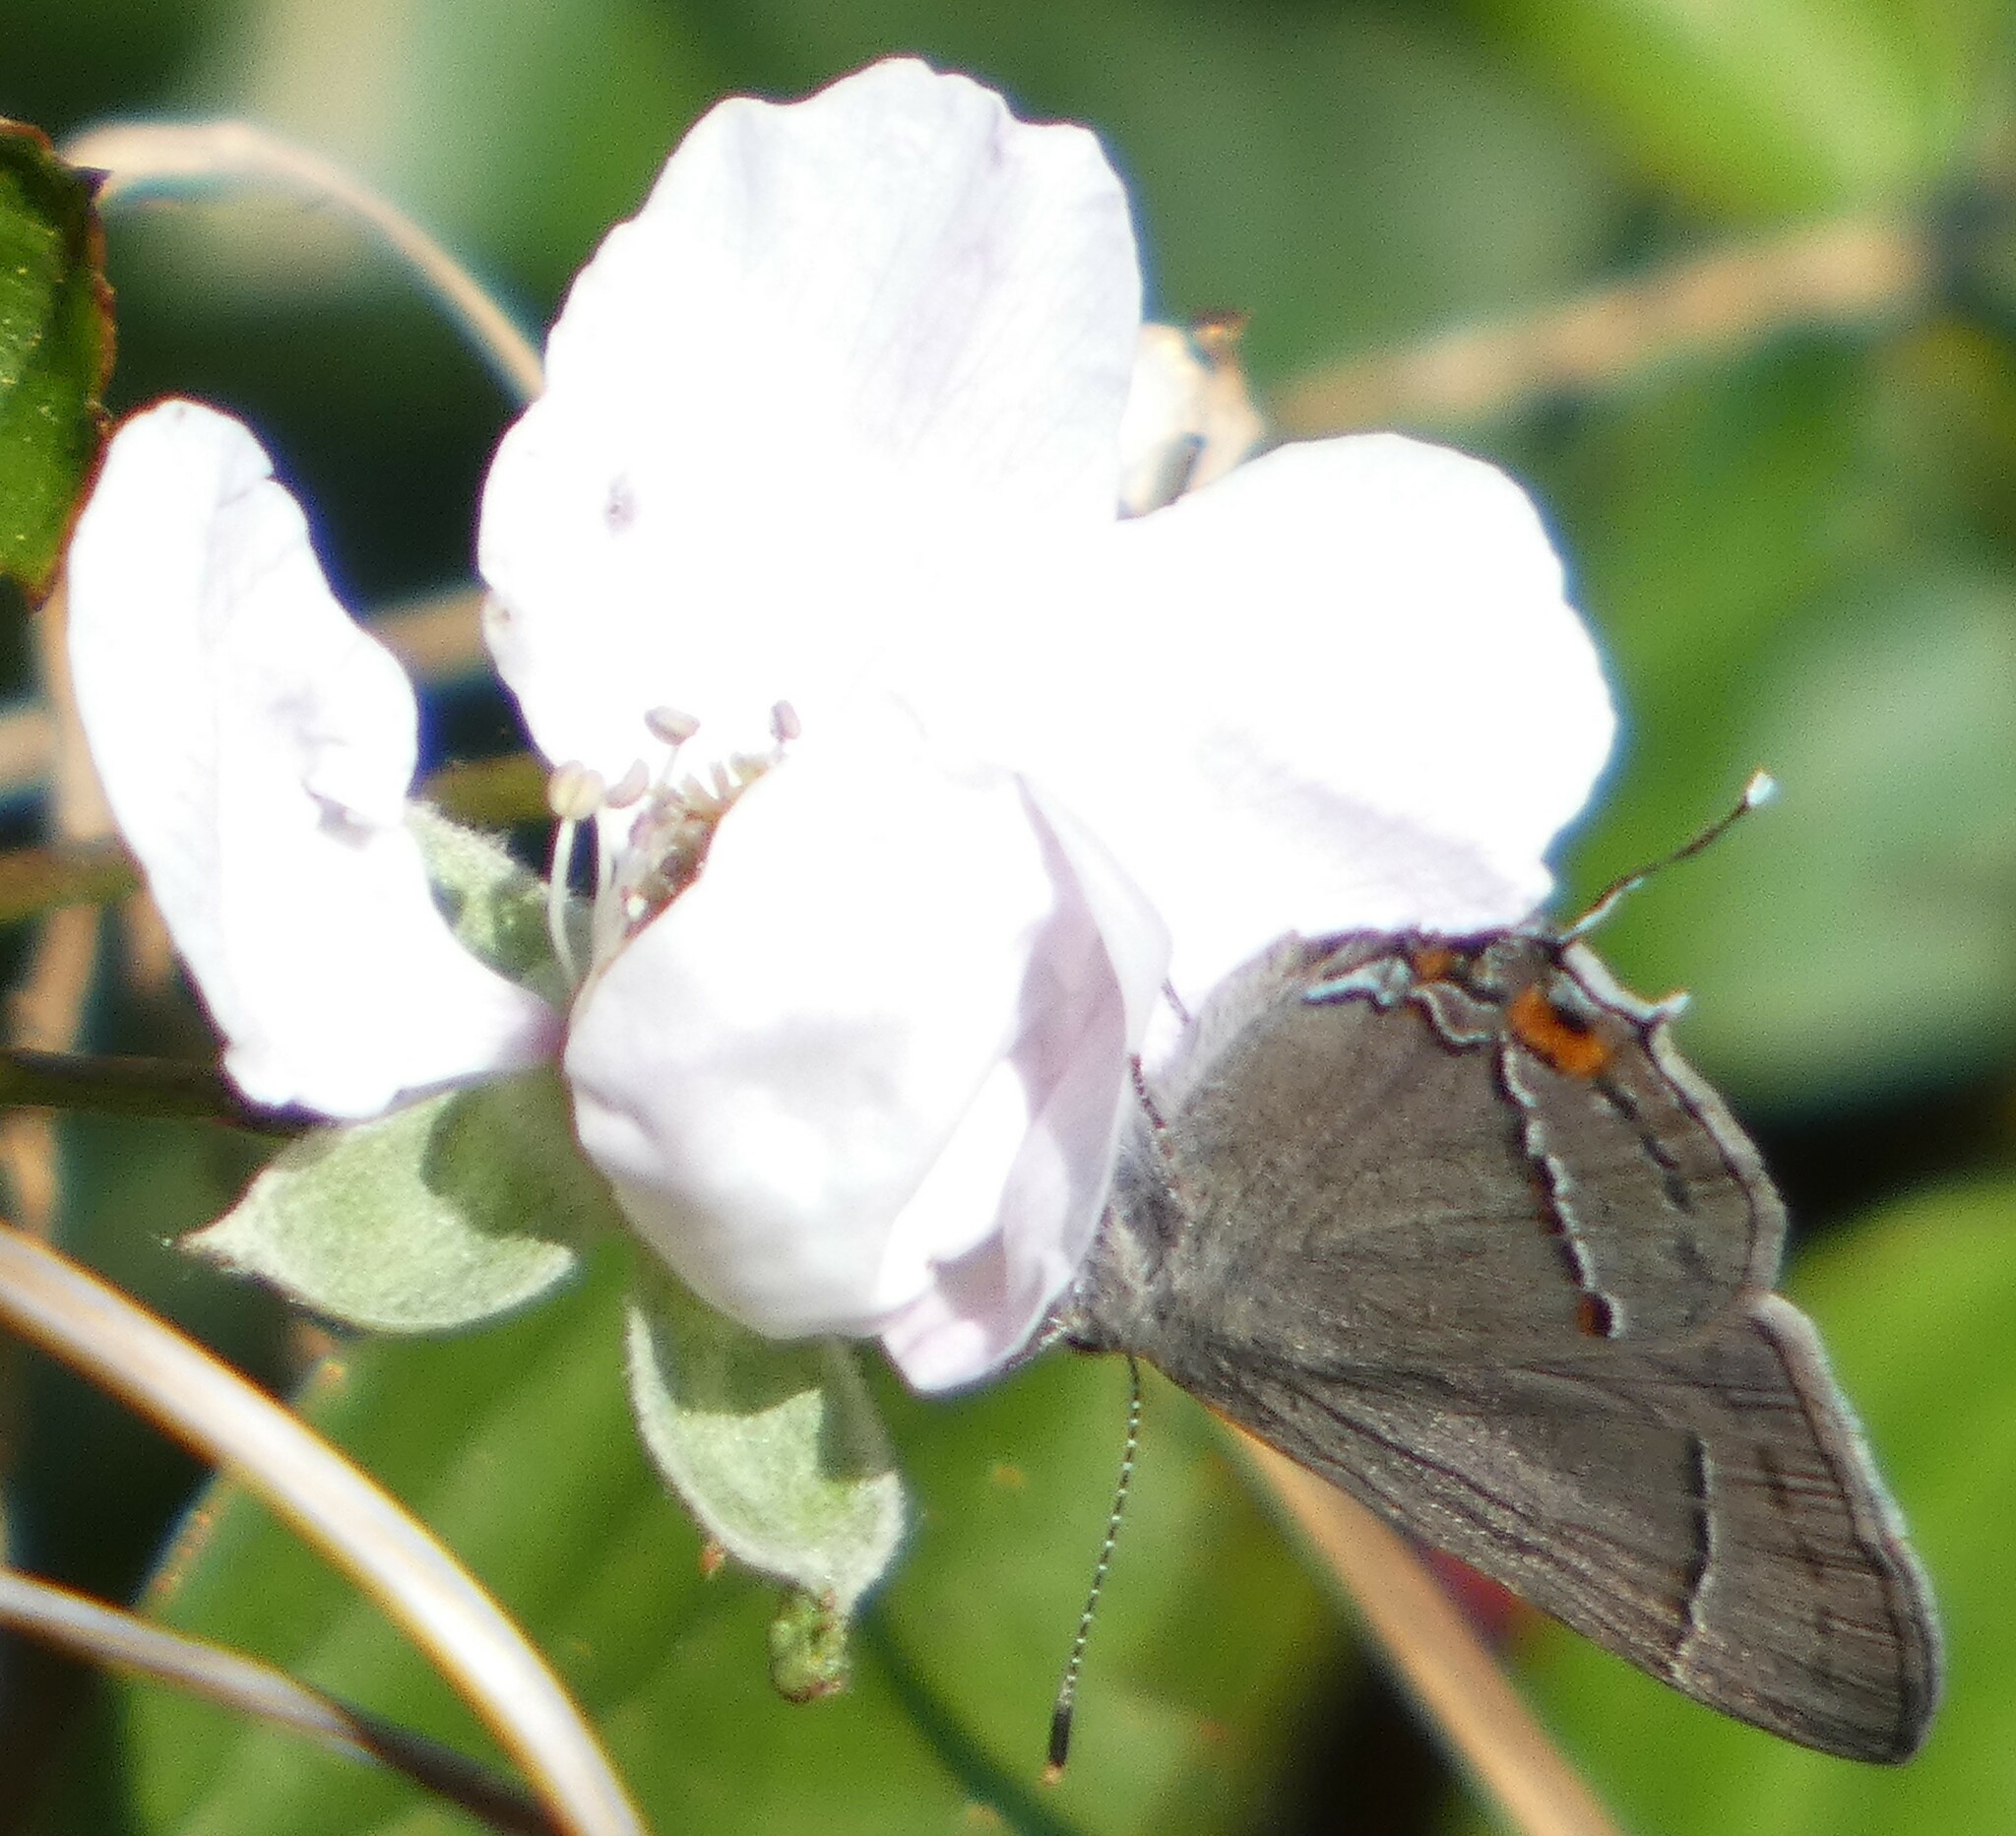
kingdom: Animalia
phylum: Arthropoda
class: Insecta
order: Lepidoptera
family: Lycaenidae
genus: Strymon
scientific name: Strymon melinus
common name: Gray hairstreak
